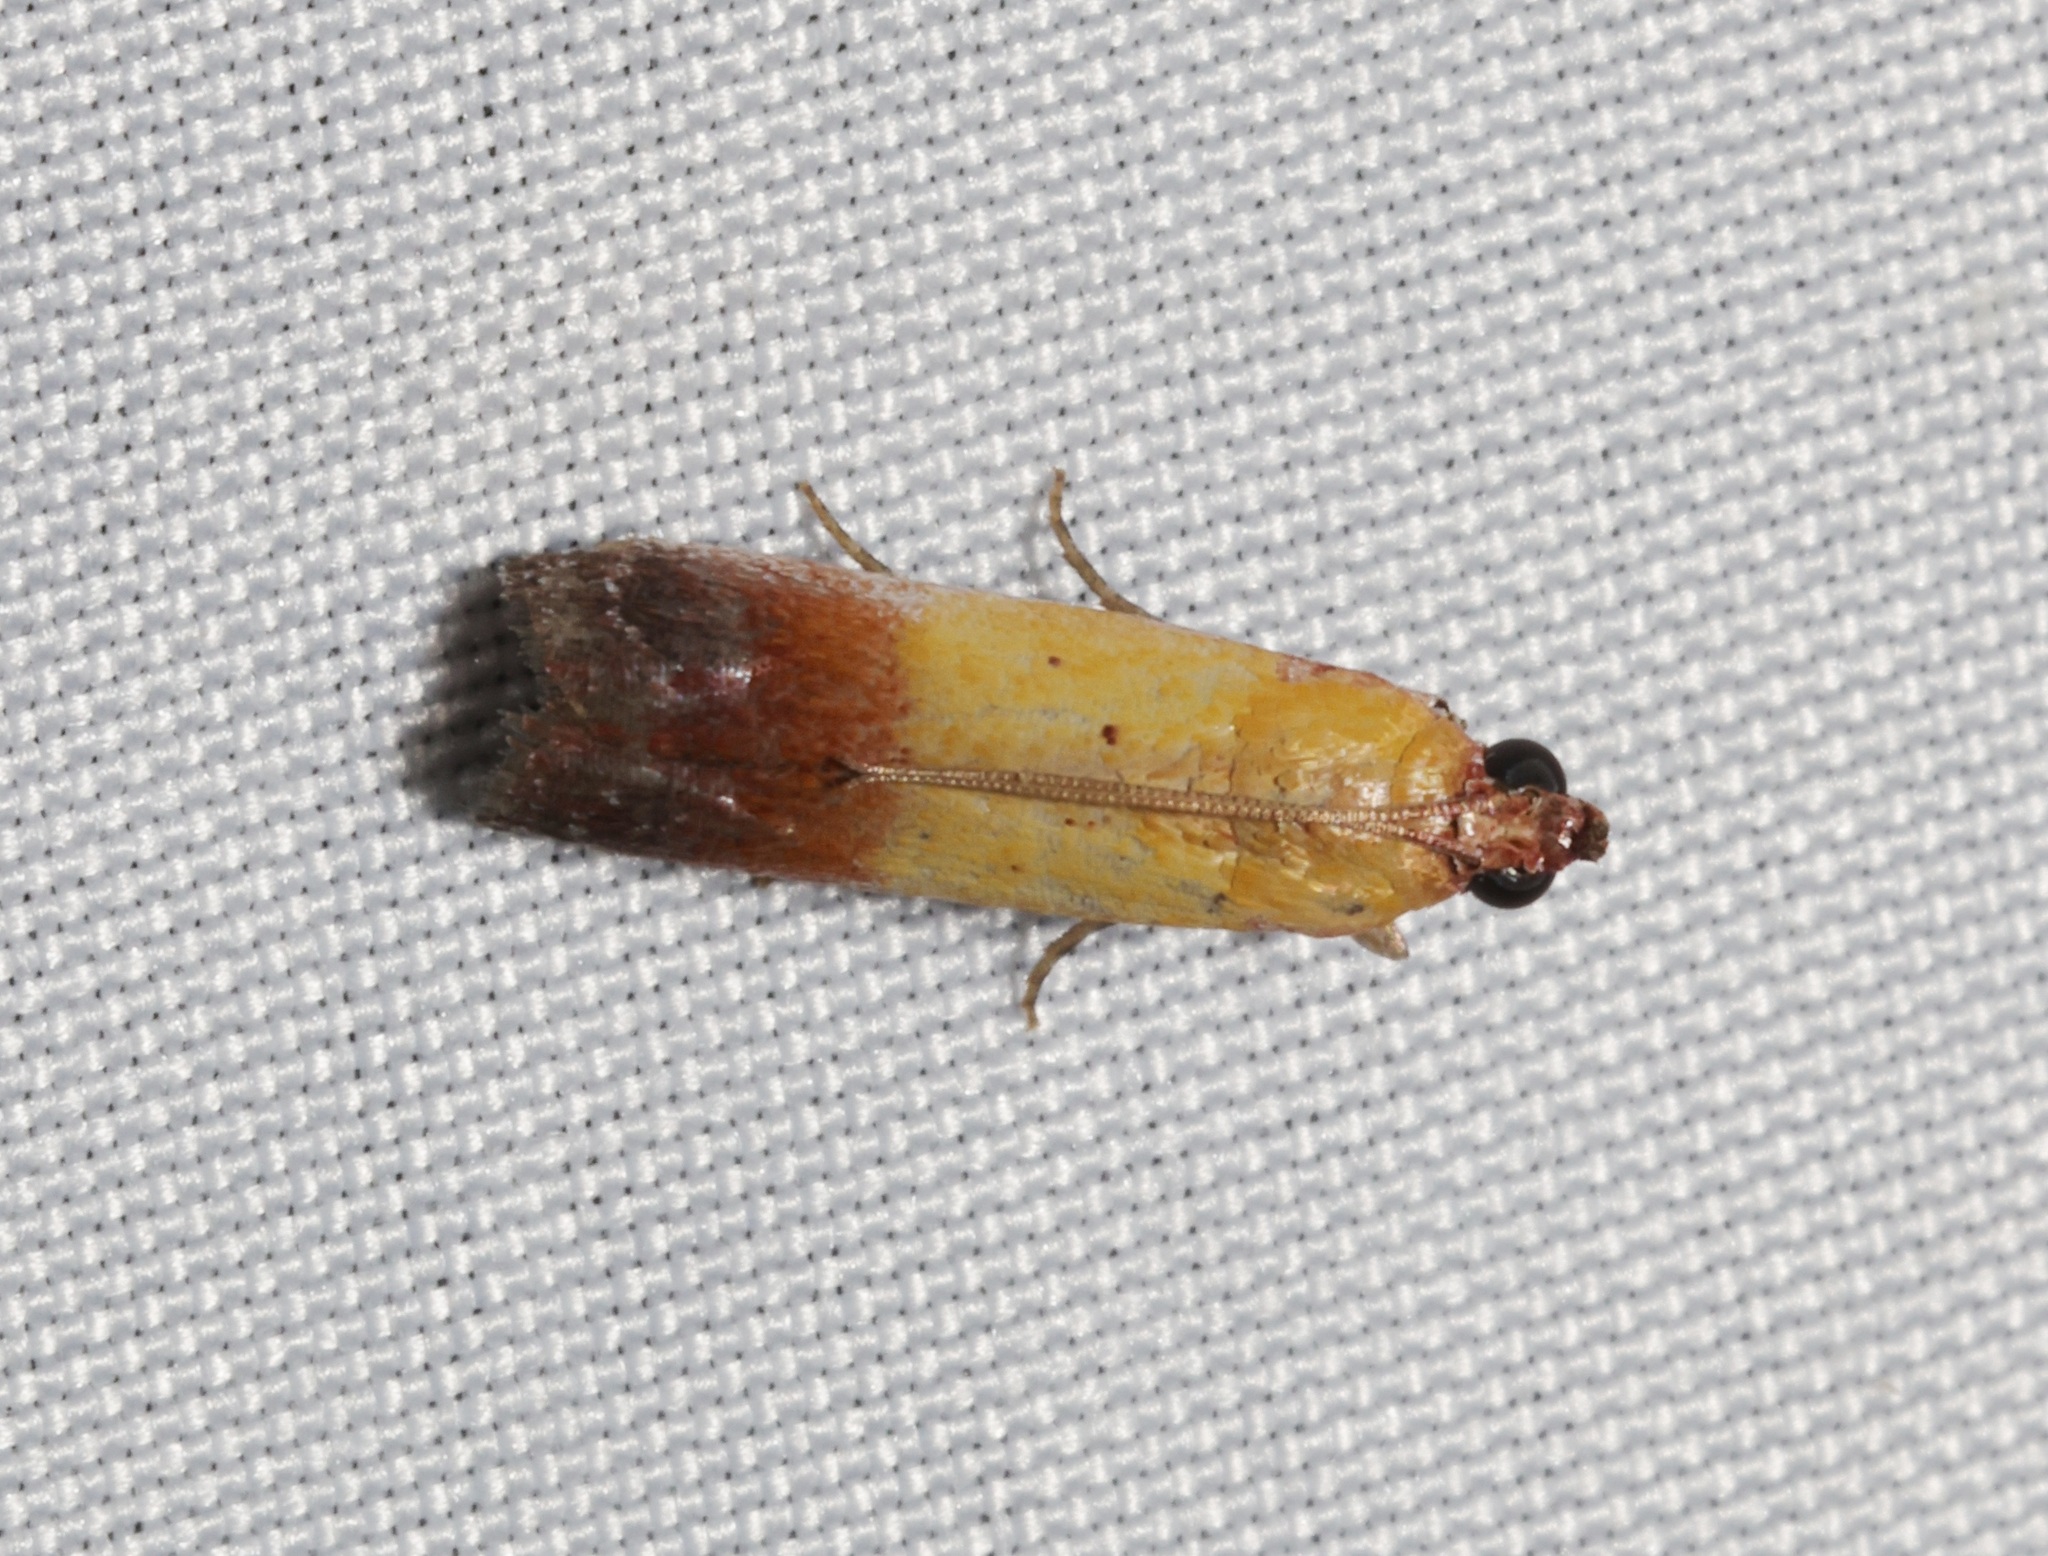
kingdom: Animalia
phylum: Arthropoda
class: Insecta
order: Lepidoptera
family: Pyralidae
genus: Piesmopoda
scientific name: Piesmopoda
